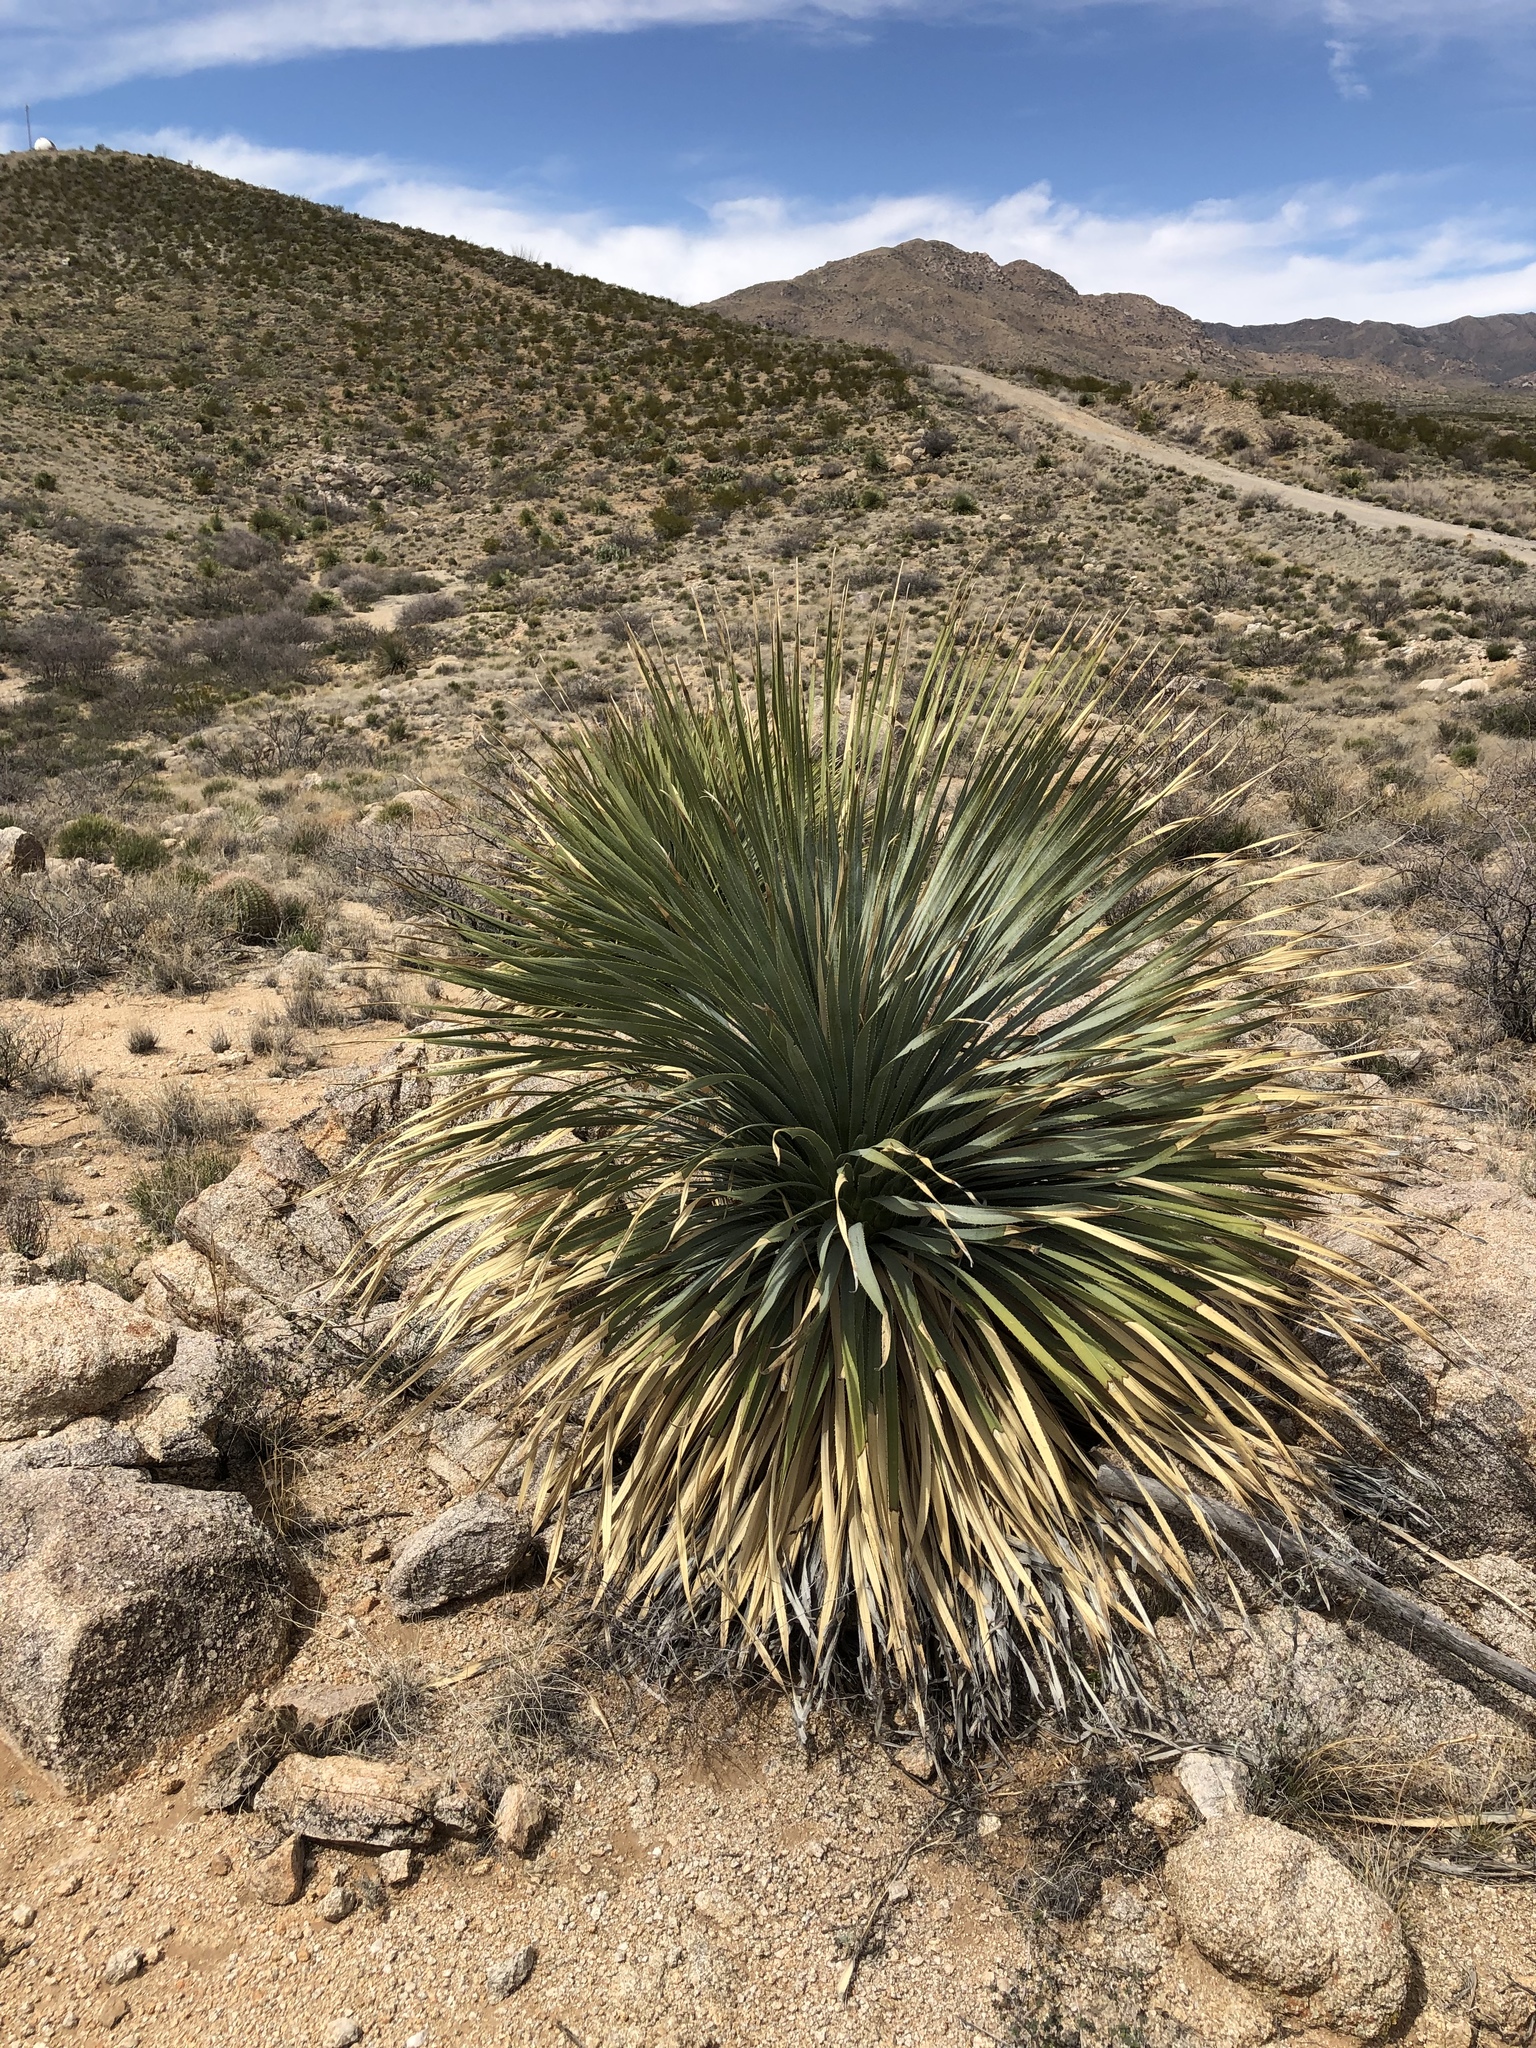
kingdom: Plantae
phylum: Tracheophyta
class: Liliopsida
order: Asparagales
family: Asparagaceae
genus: Dasylirion
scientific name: Dasylirion wheeleri
